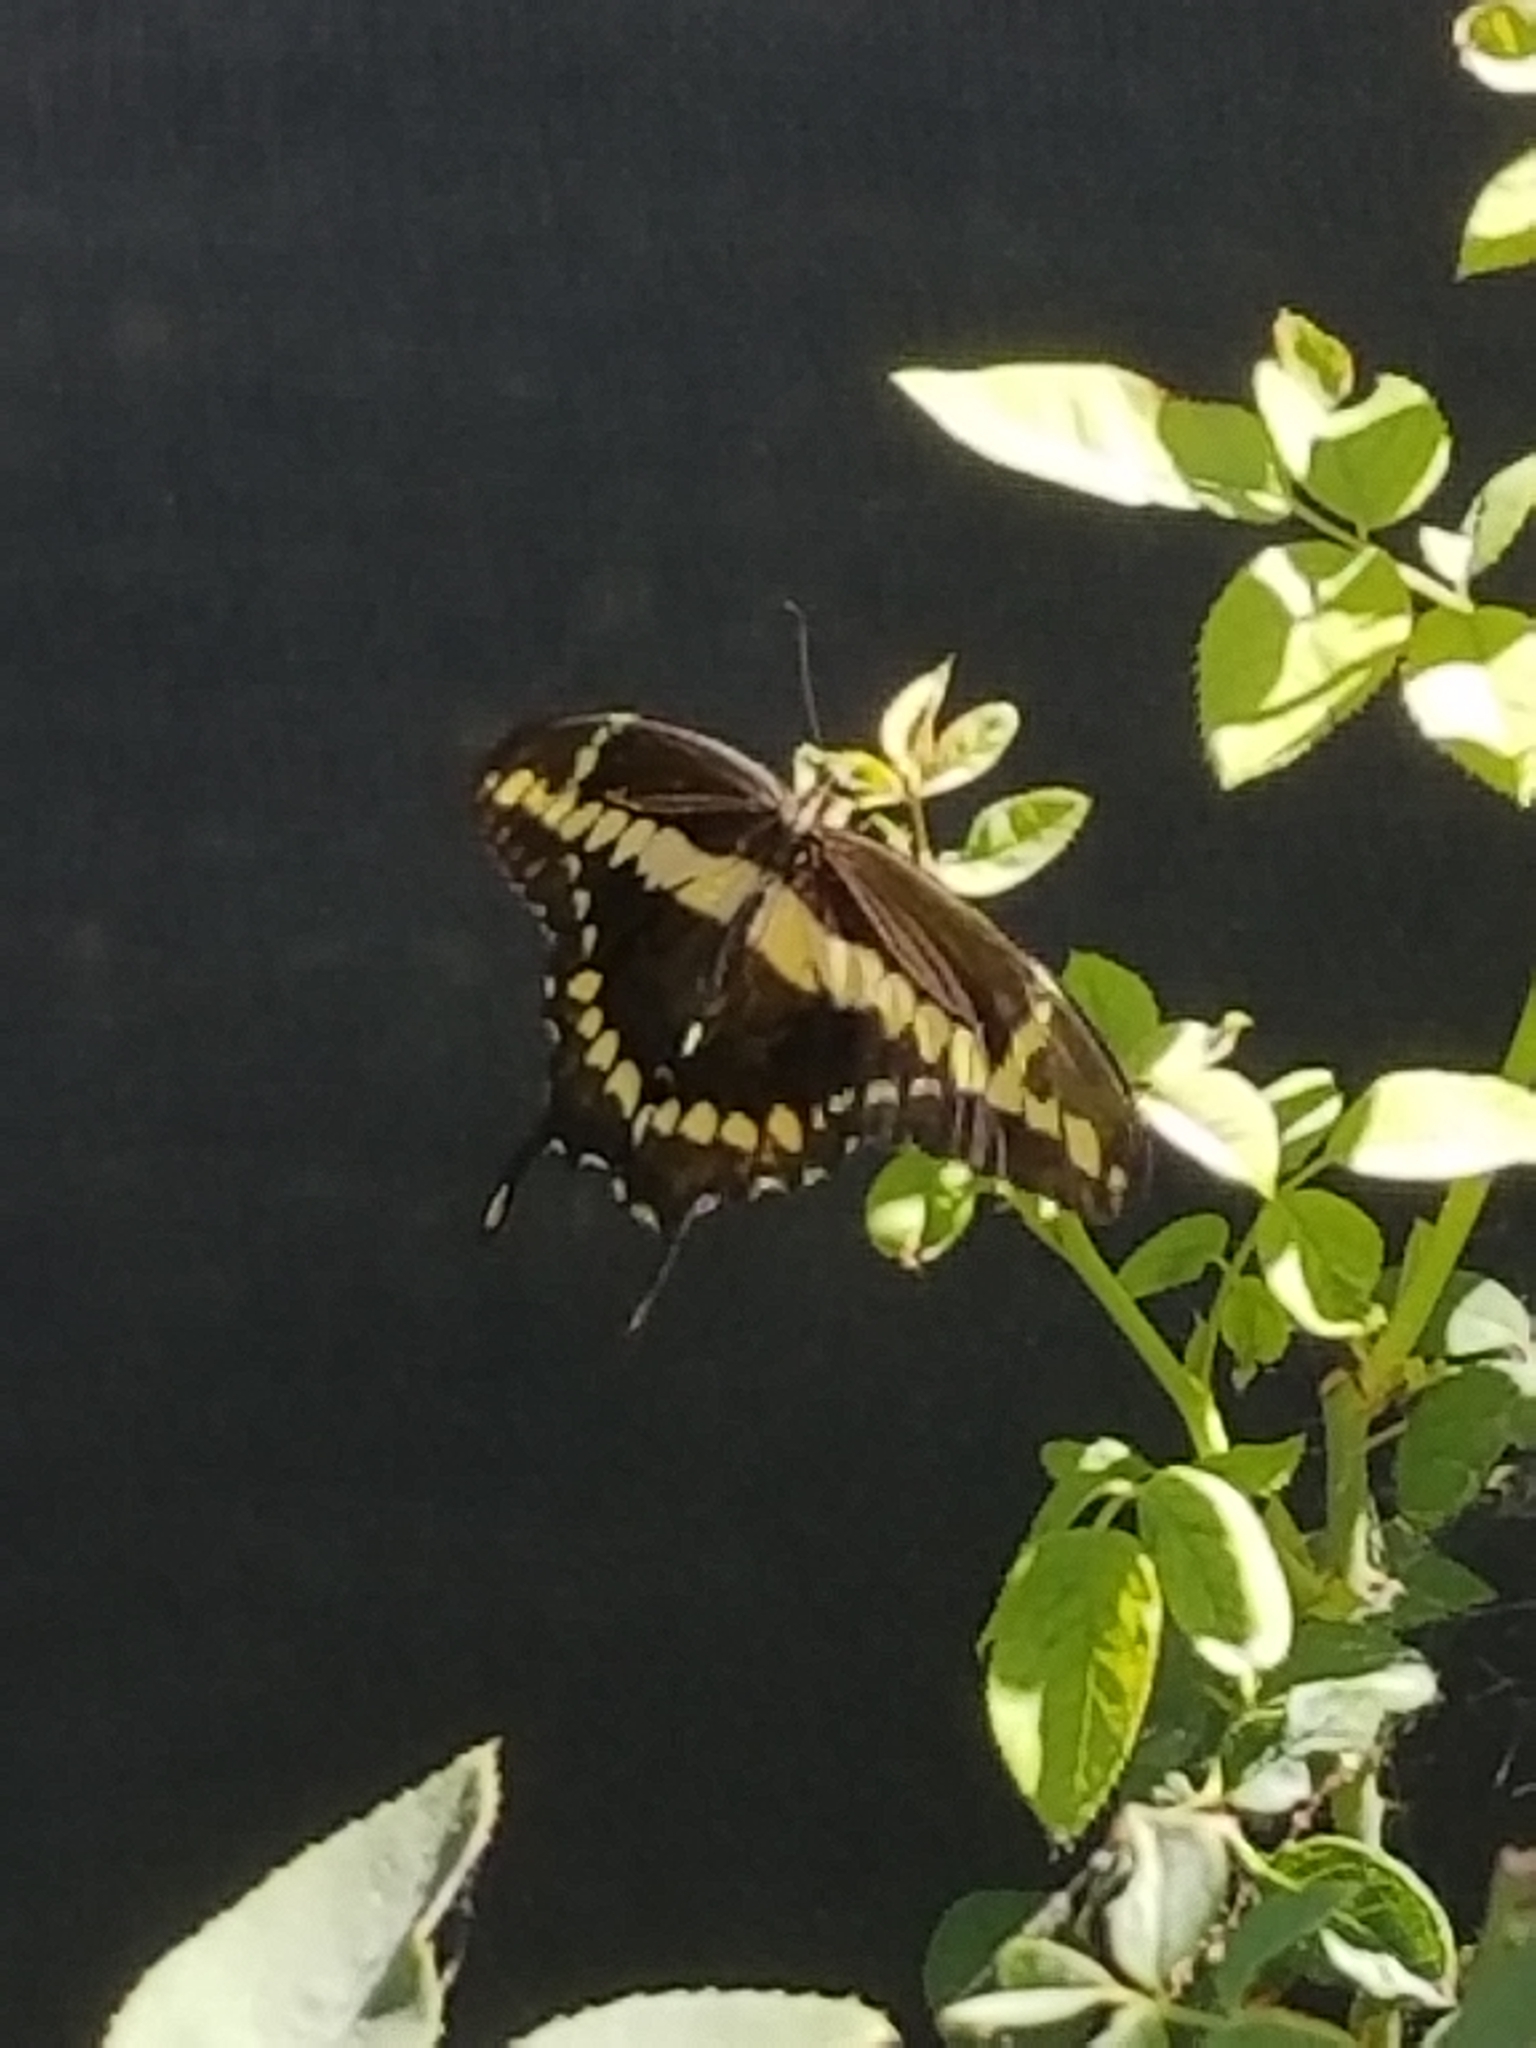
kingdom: Animalia
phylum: Arthropoda
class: Insecta
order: Lepidoptera
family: Papilionidae
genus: Papilio
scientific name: Papilio rumiko
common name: Western giant swallowtail
